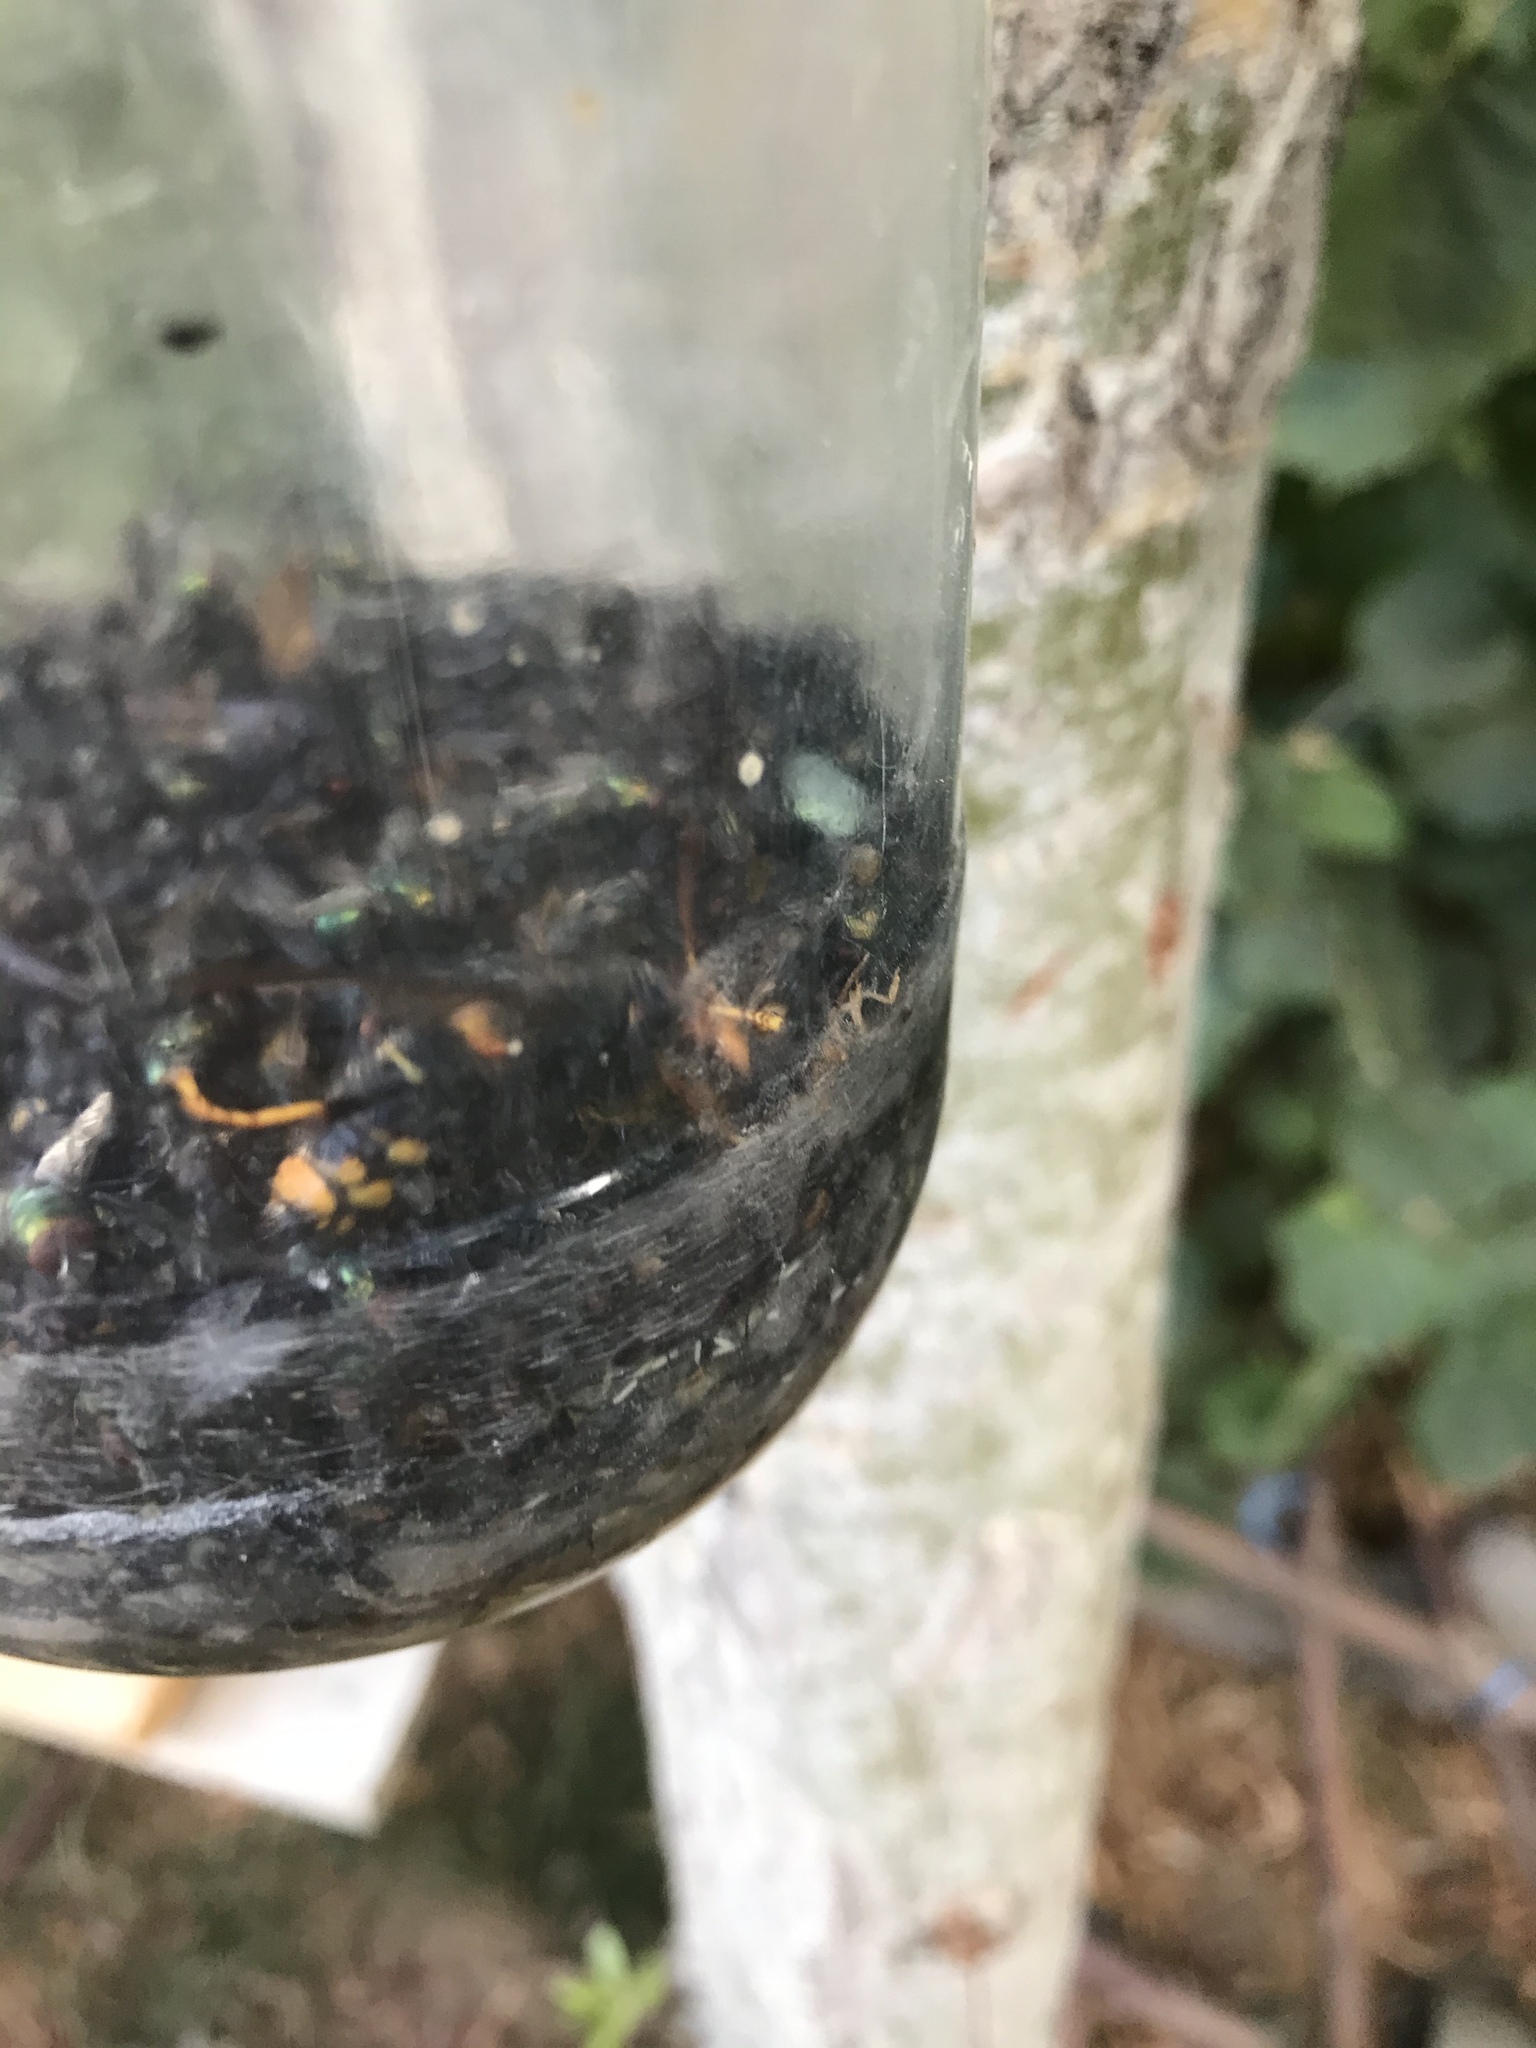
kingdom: Animalia
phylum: Arthropoda
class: Insecta
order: Hymenoptera
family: Vespidae
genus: Vespa
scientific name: Vespa velutina
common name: Asian hornet
